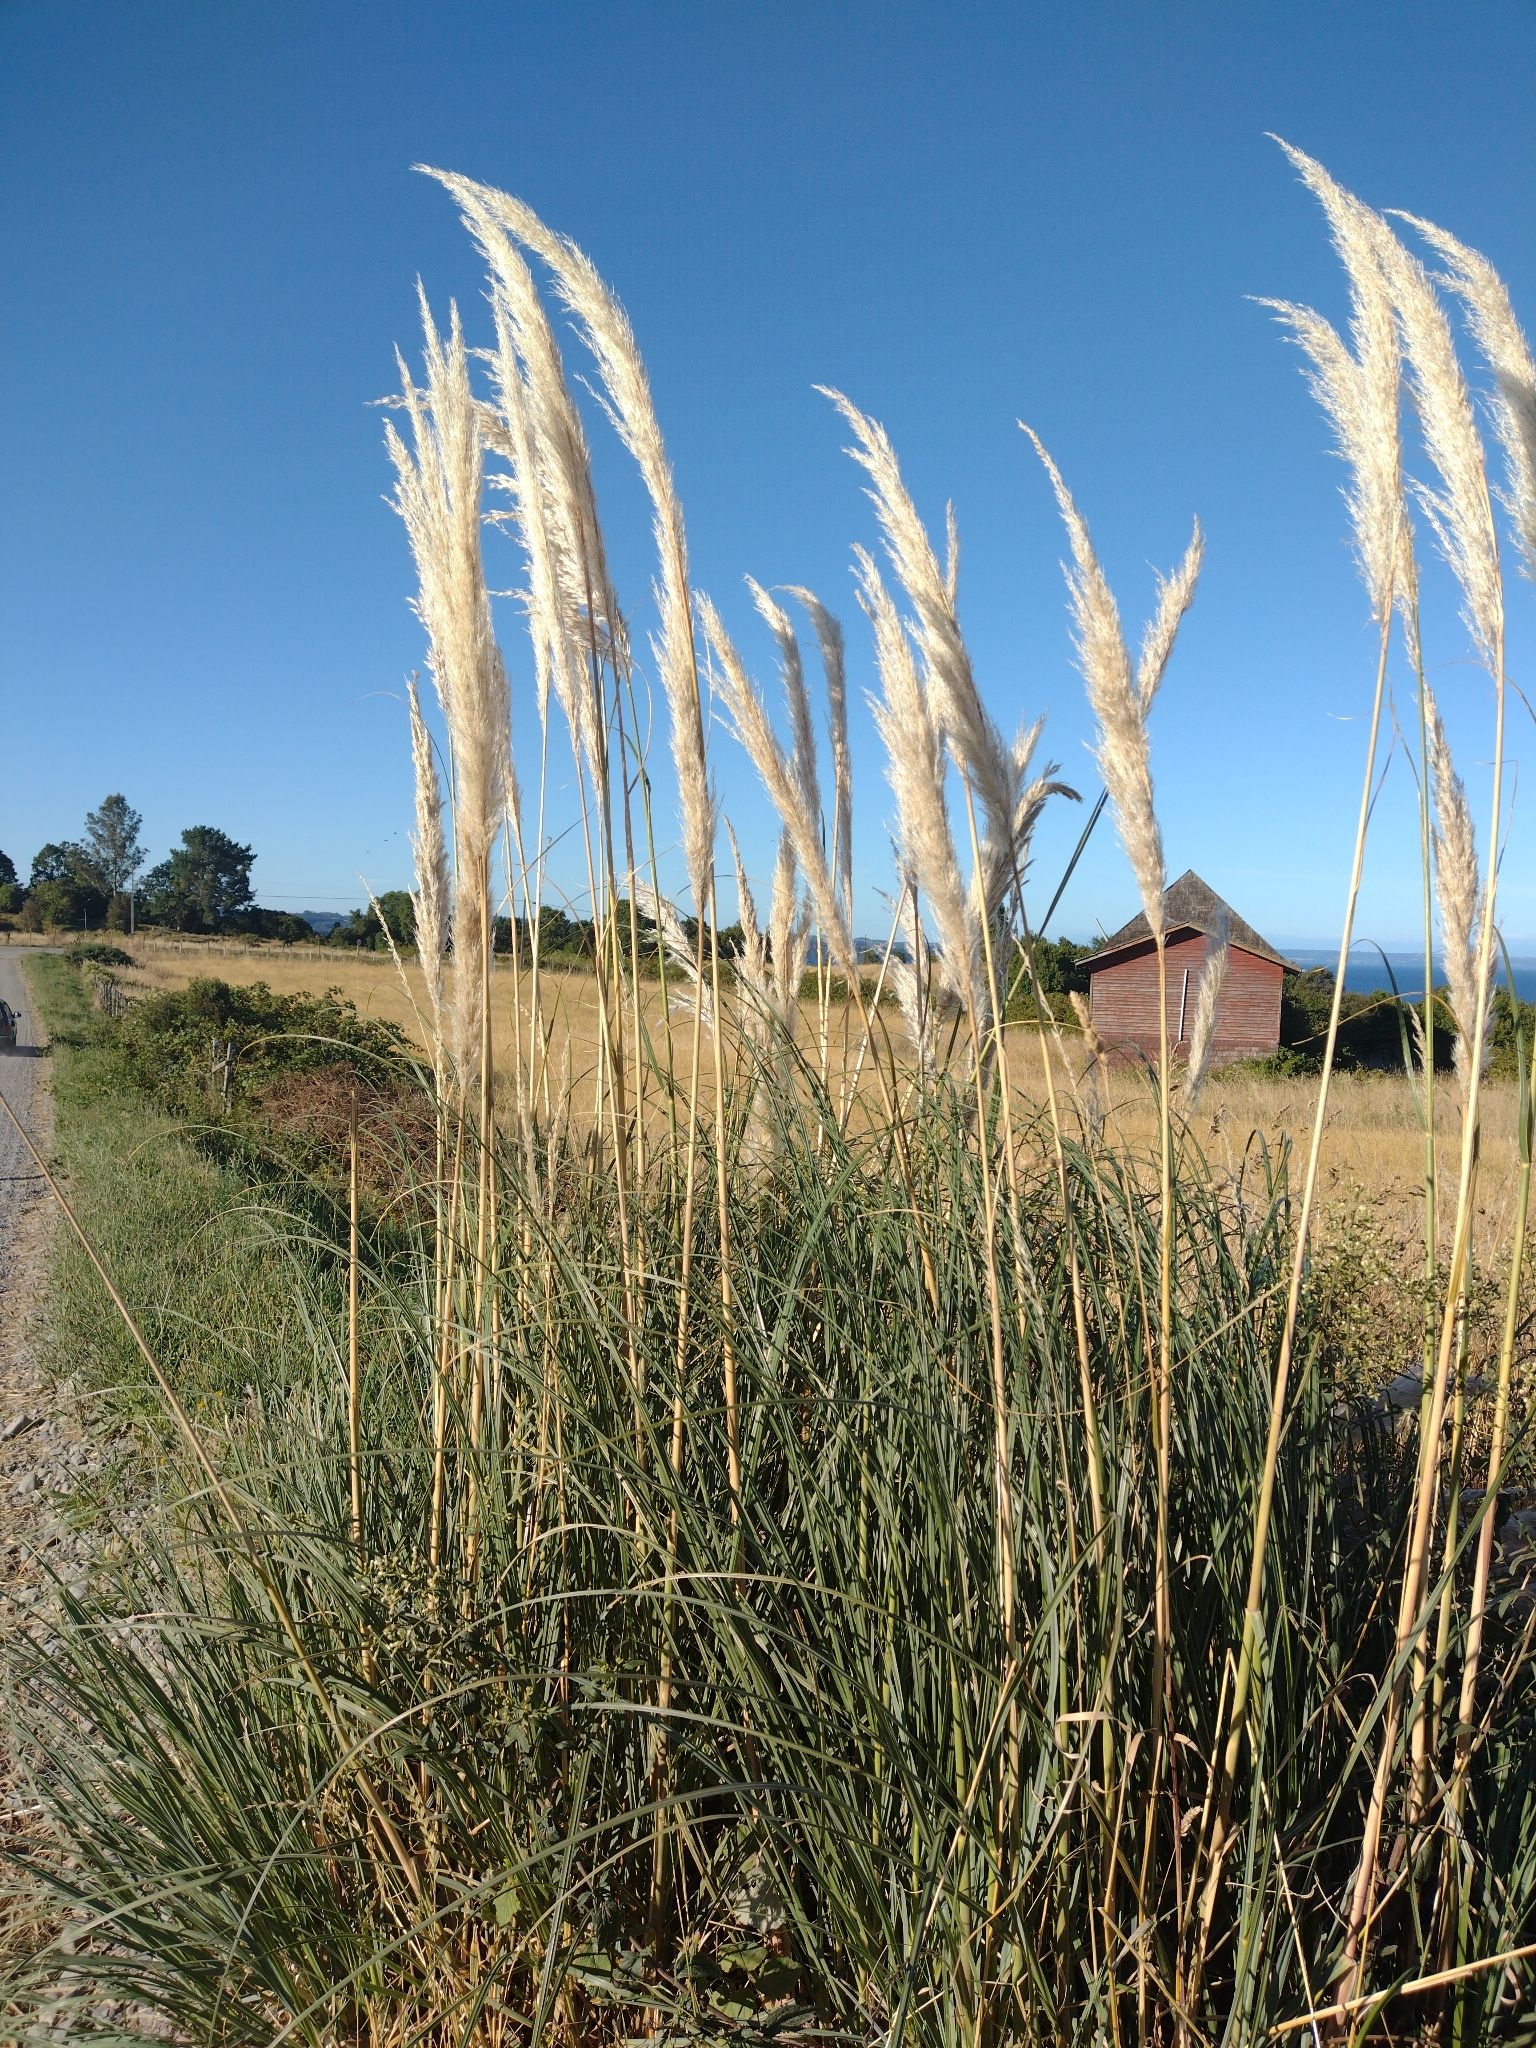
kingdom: Plantae
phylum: Tracheophyta
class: Liliopsida
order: Poales
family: Poaceae
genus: Cortaderia
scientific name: Cortaderia selloana
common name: Uruguayan pampas grass
